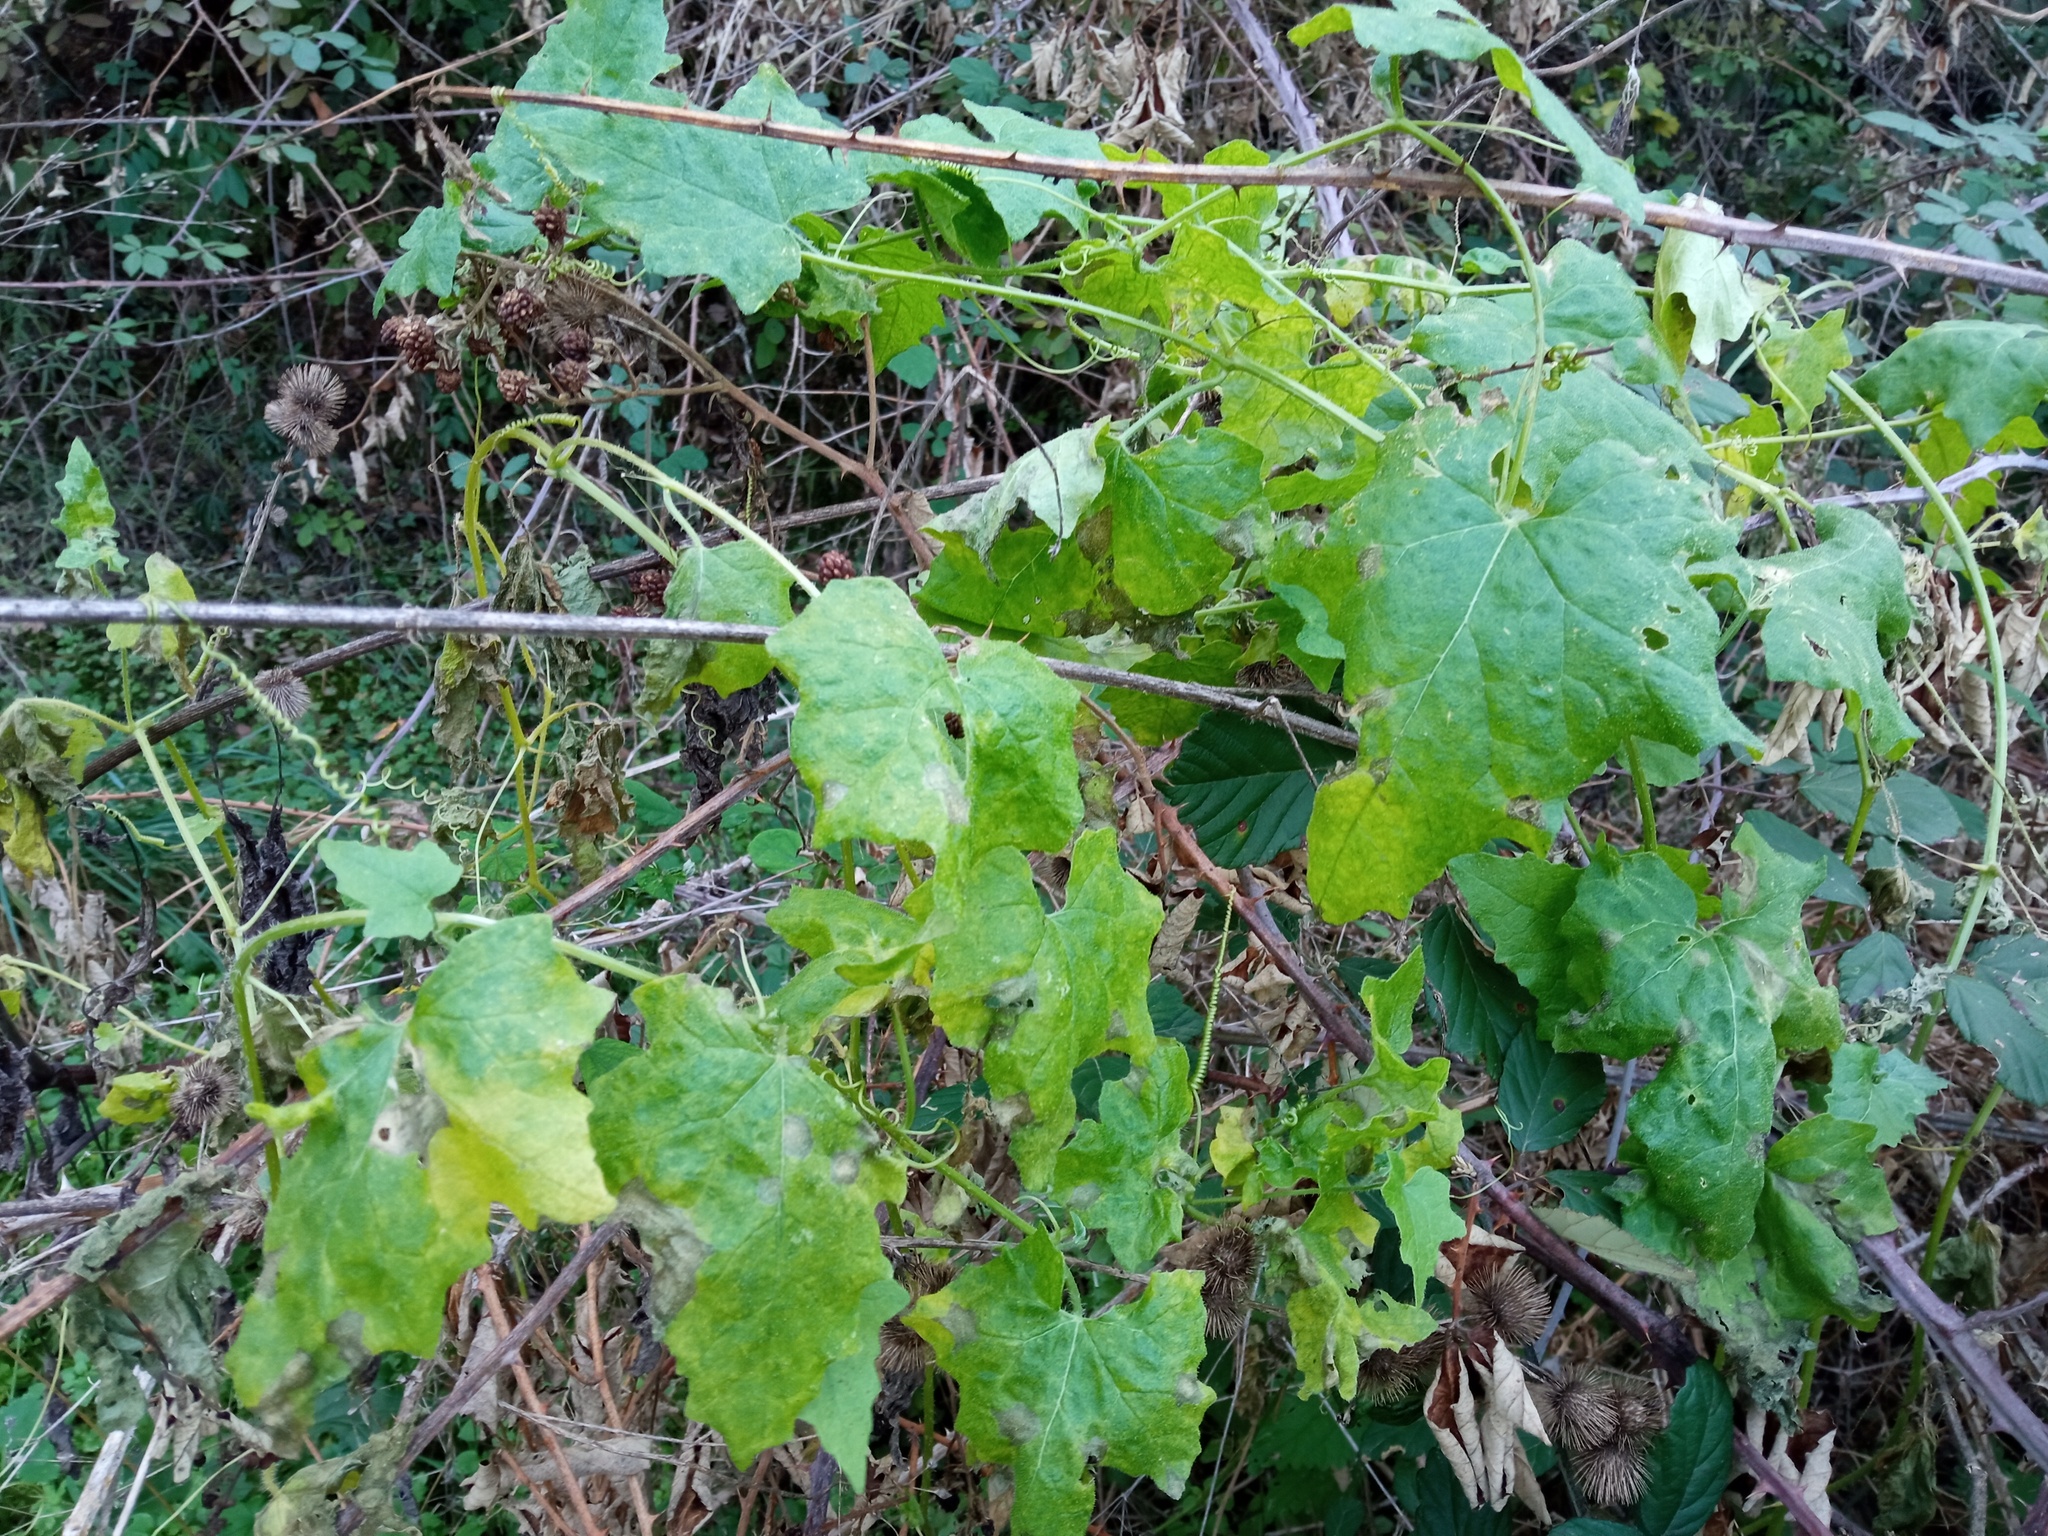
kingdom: Plantae
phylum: Tracheophyta
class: Magnoliopsida
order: Cucurbitales
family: Cucurbitaceae
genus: Bryonia
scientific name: Bryonia dioica
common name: White bryony
